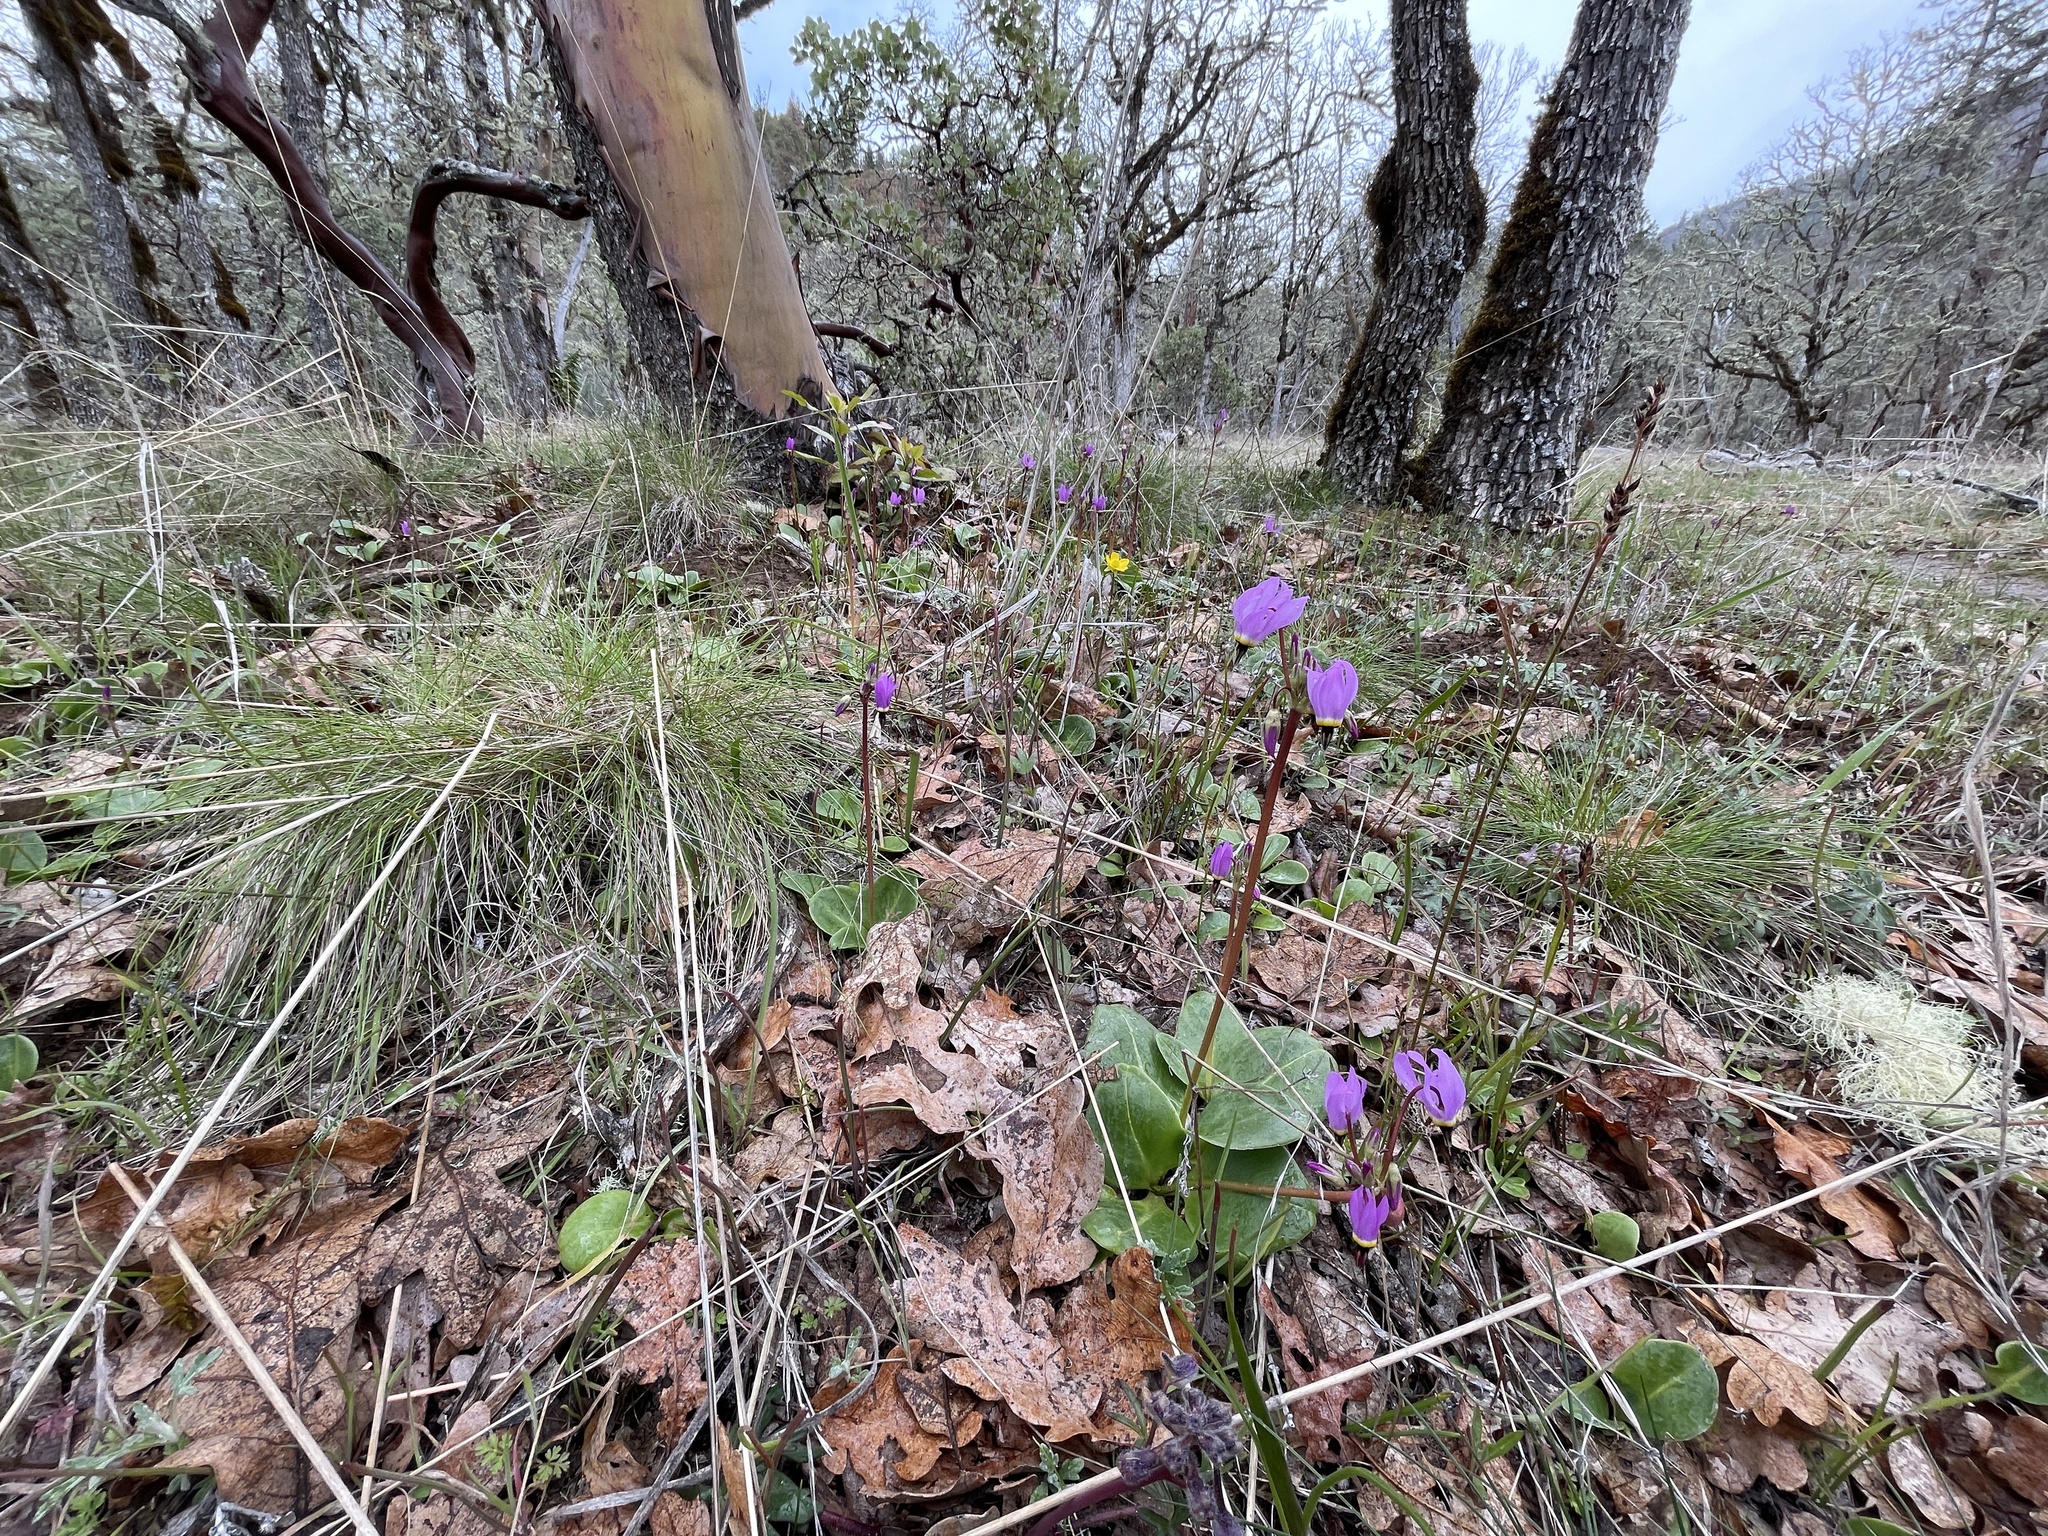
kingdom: Plantae
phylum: Tracheophyta
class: Magnoliopsida
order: Ericales
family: Primulaceae
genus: Dodecatheon
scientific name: Dodecatheon hendersonii
